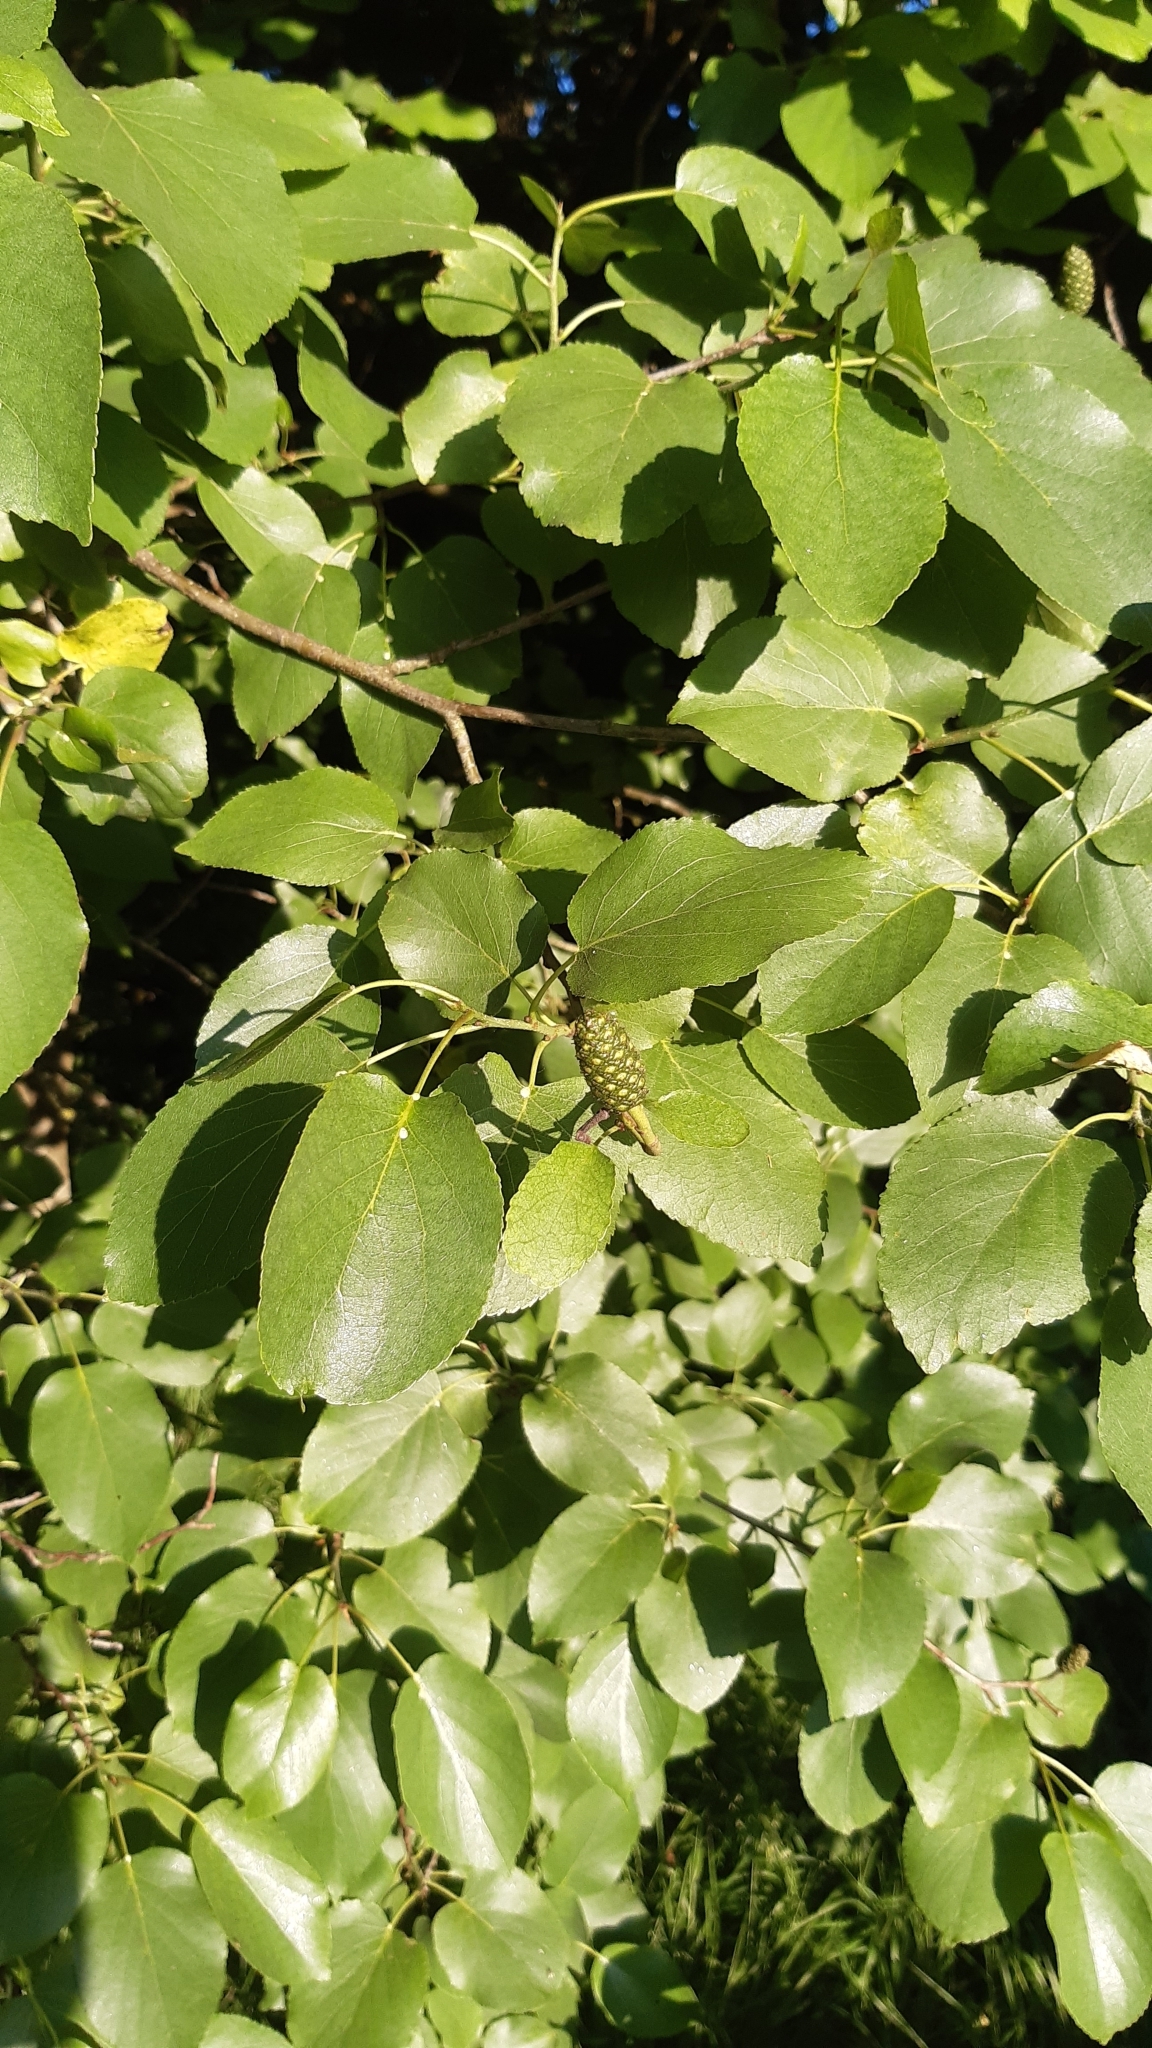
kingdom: Plantae
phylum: Tracheophyta
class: Magnoliopsida
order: Fagales
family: Betulaceae
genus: Alnus
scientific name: Alnus cordata
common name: Italian alder
